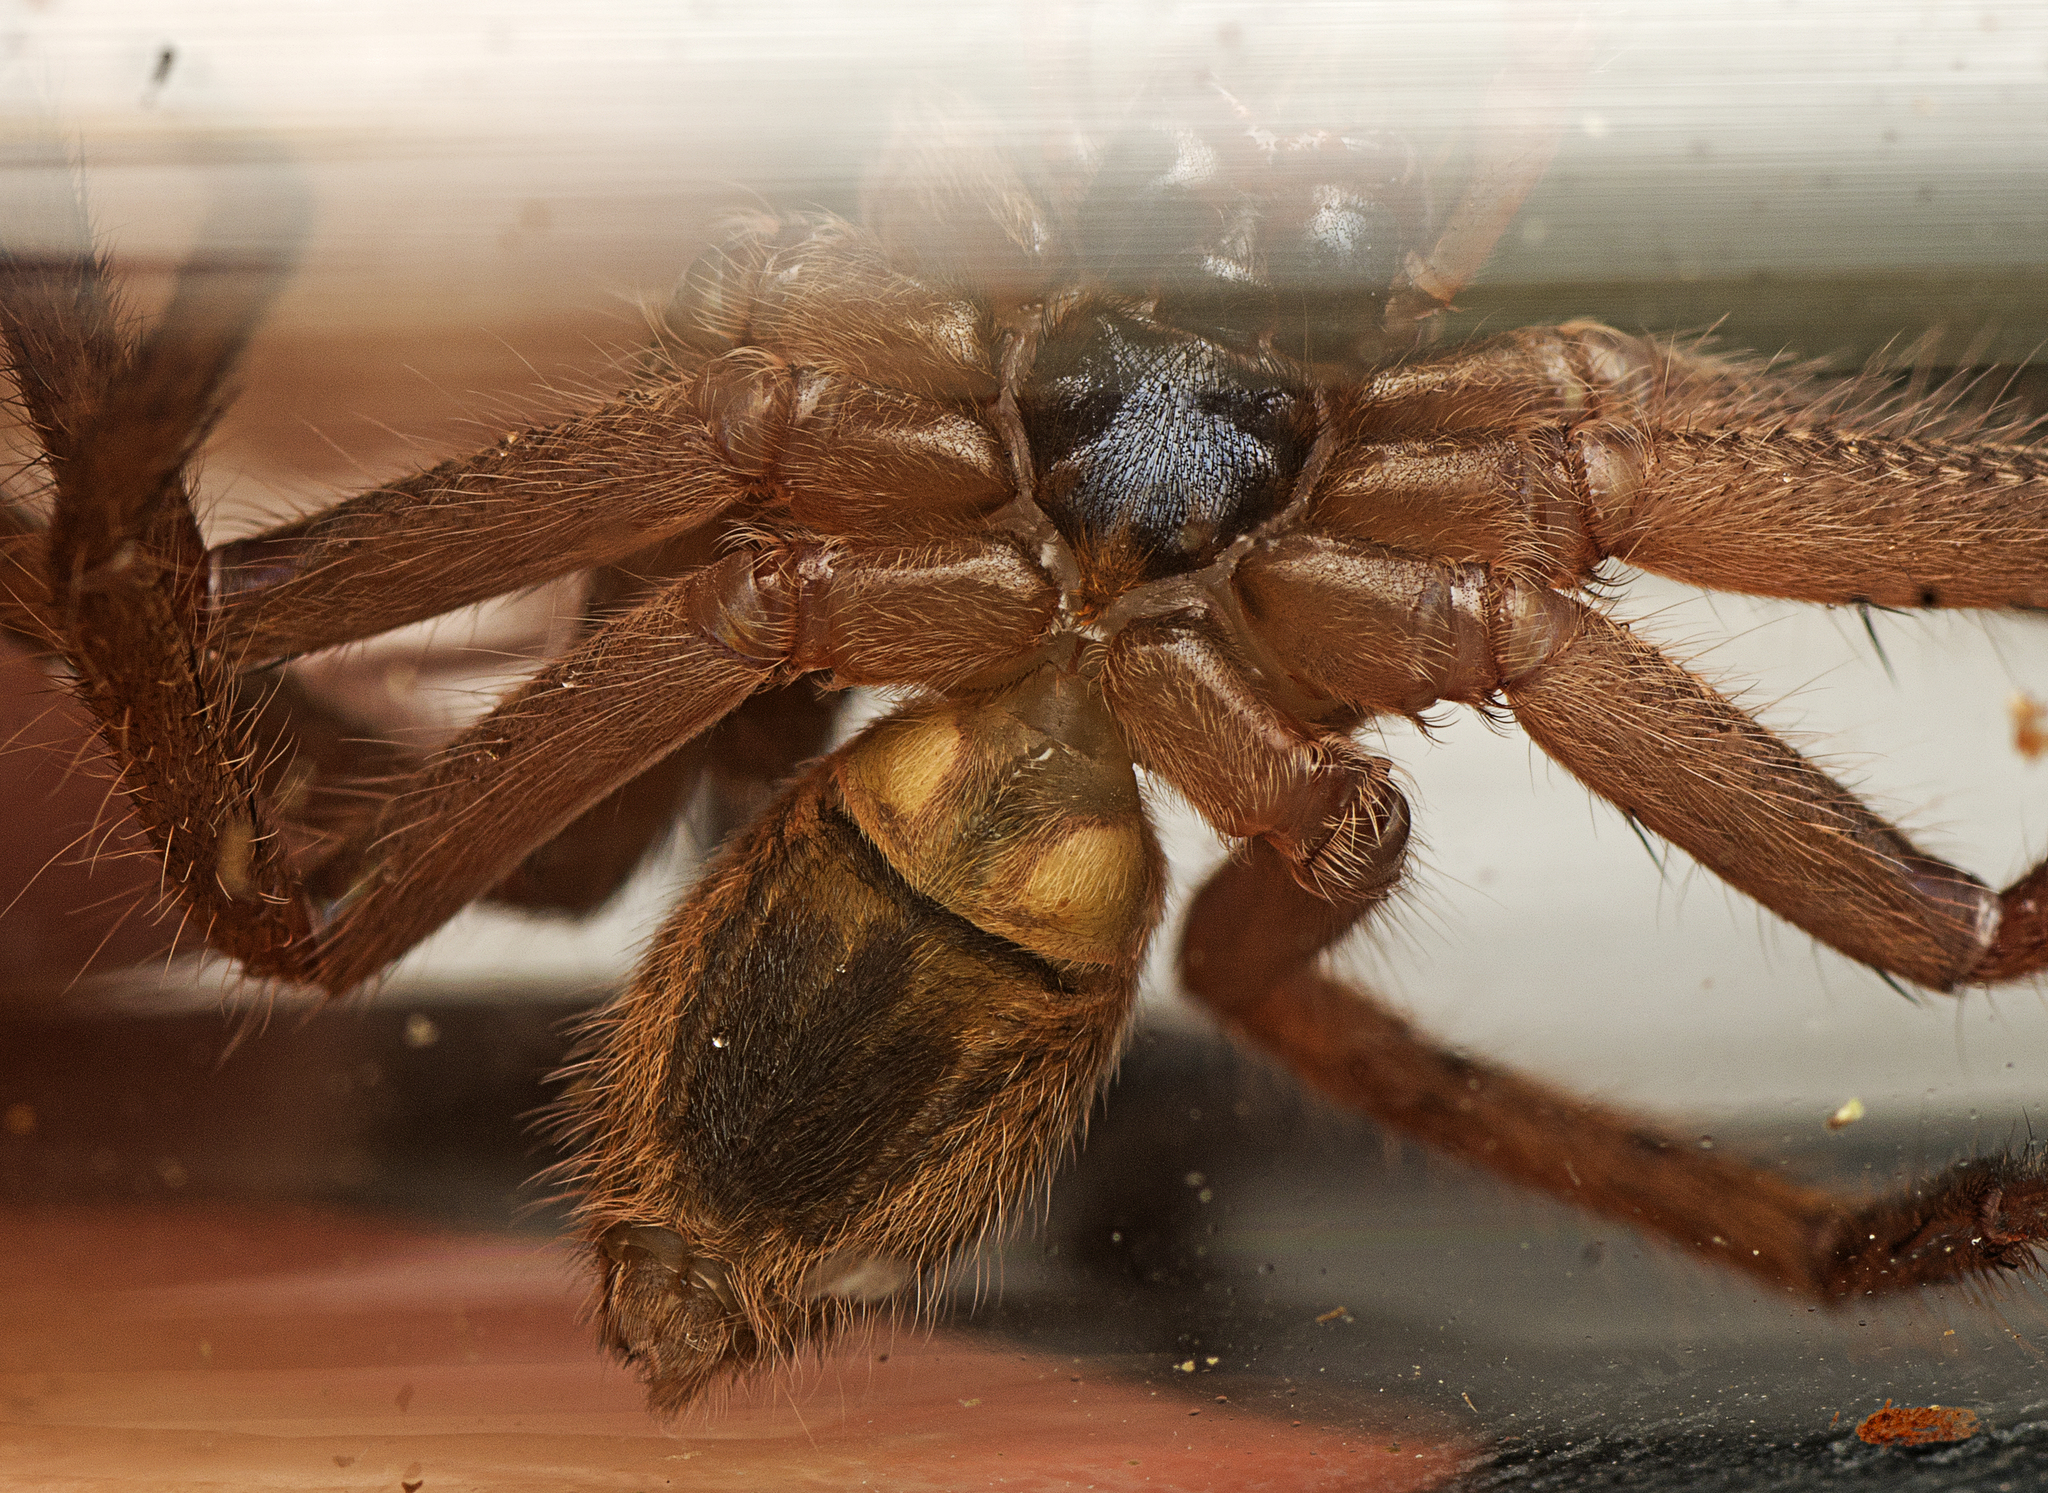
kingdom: Animalia
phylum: Arthropoda
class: Arachnida
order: Araneae
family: Sparassidae
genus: Beregama
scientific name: Beregama cordata
